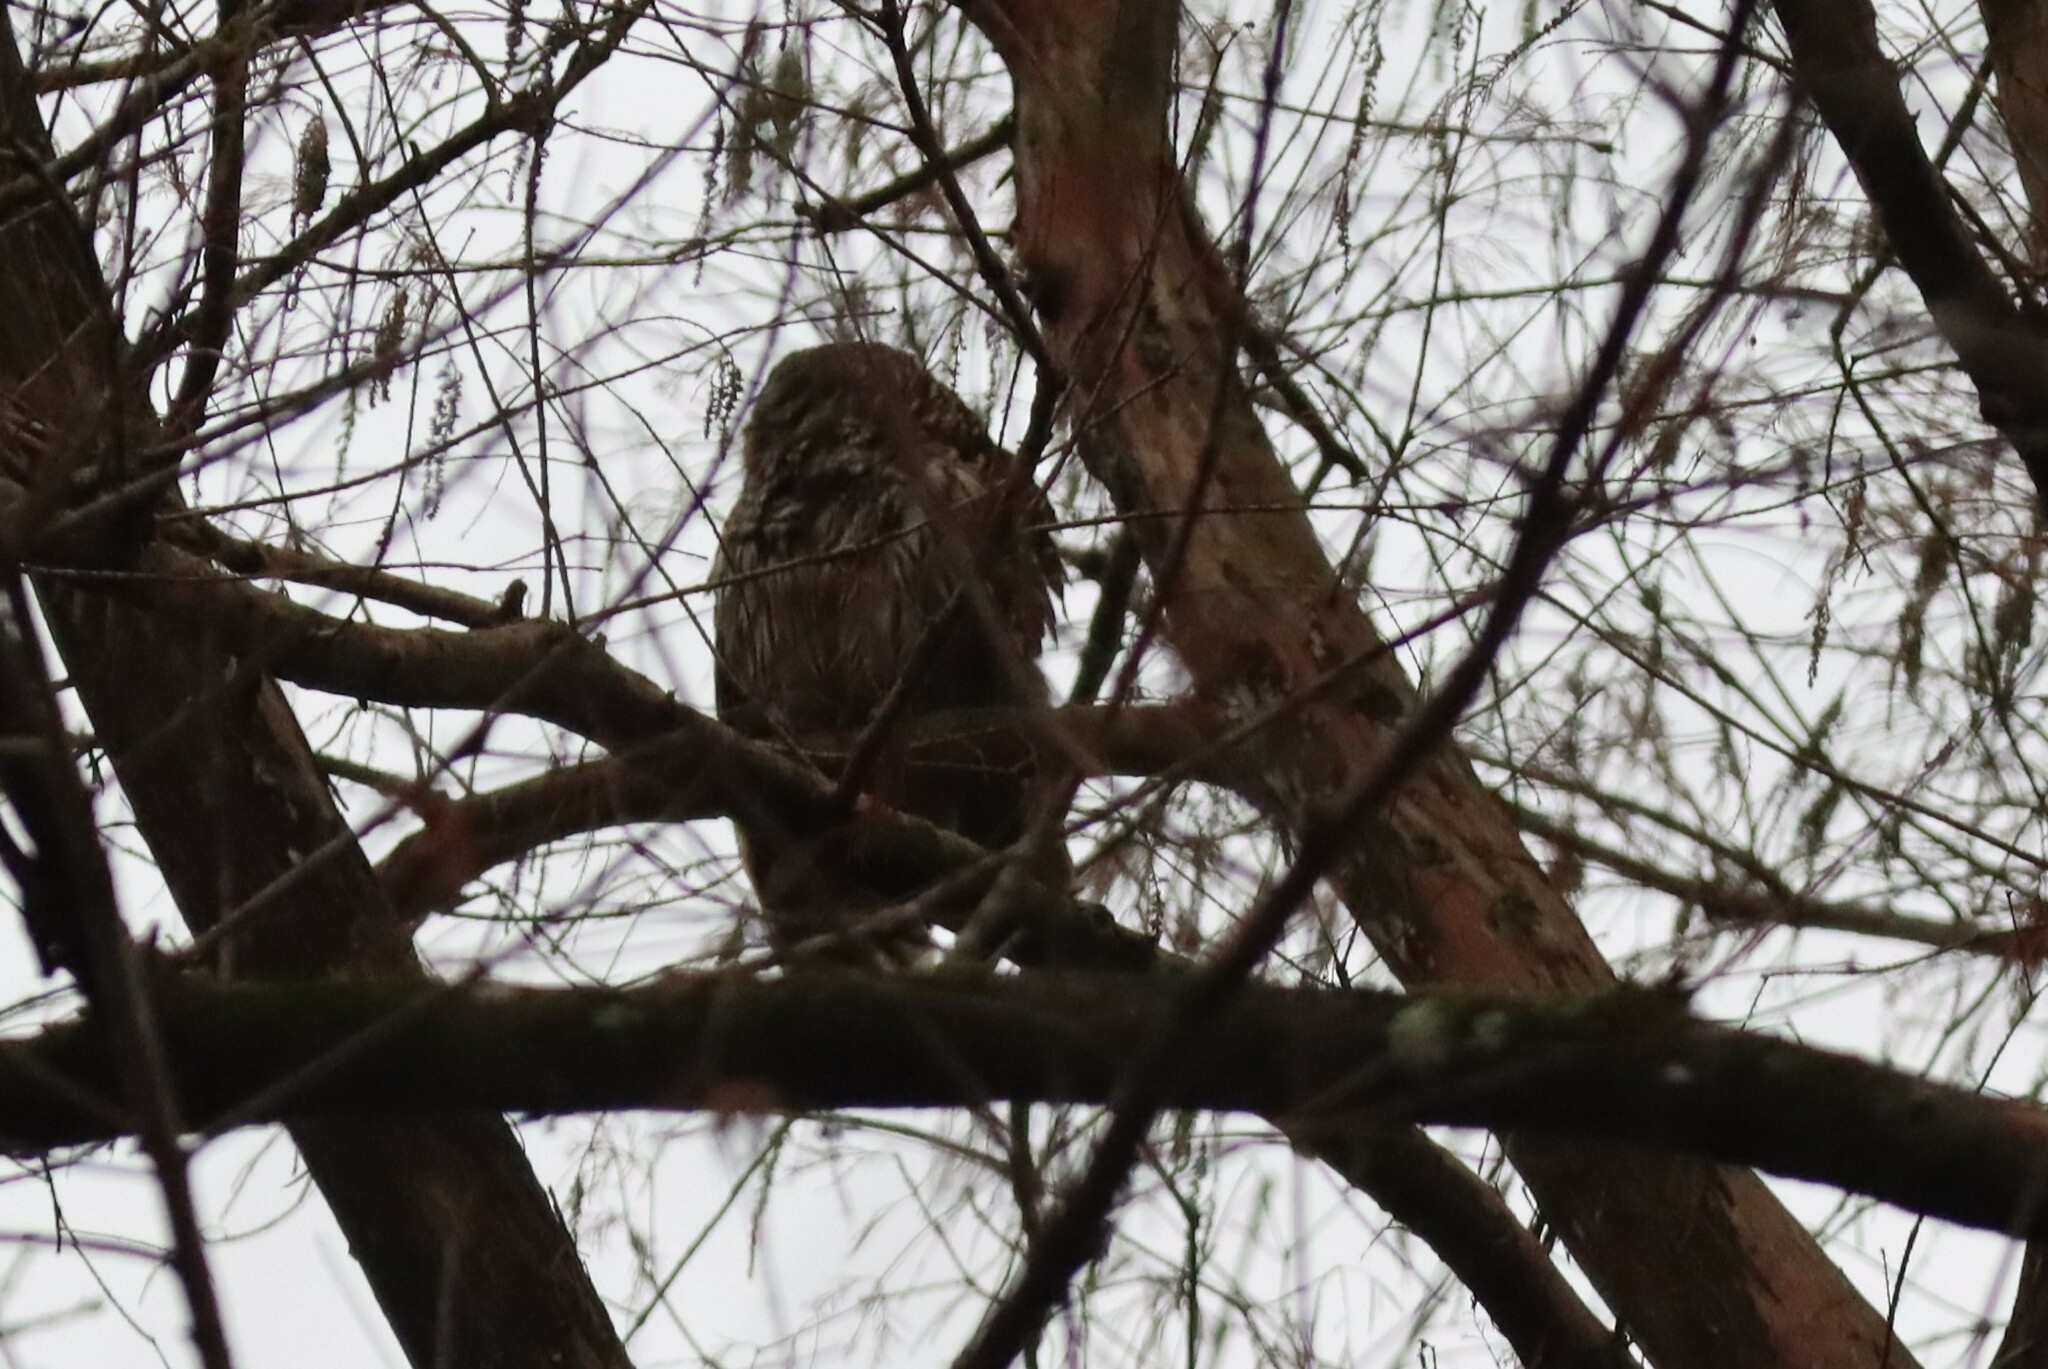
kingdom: Animalia
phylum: Chordata
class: Aves
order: Strigiformes
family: Strigidae
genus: Strix
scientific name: Strix varia
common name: Barred owl
